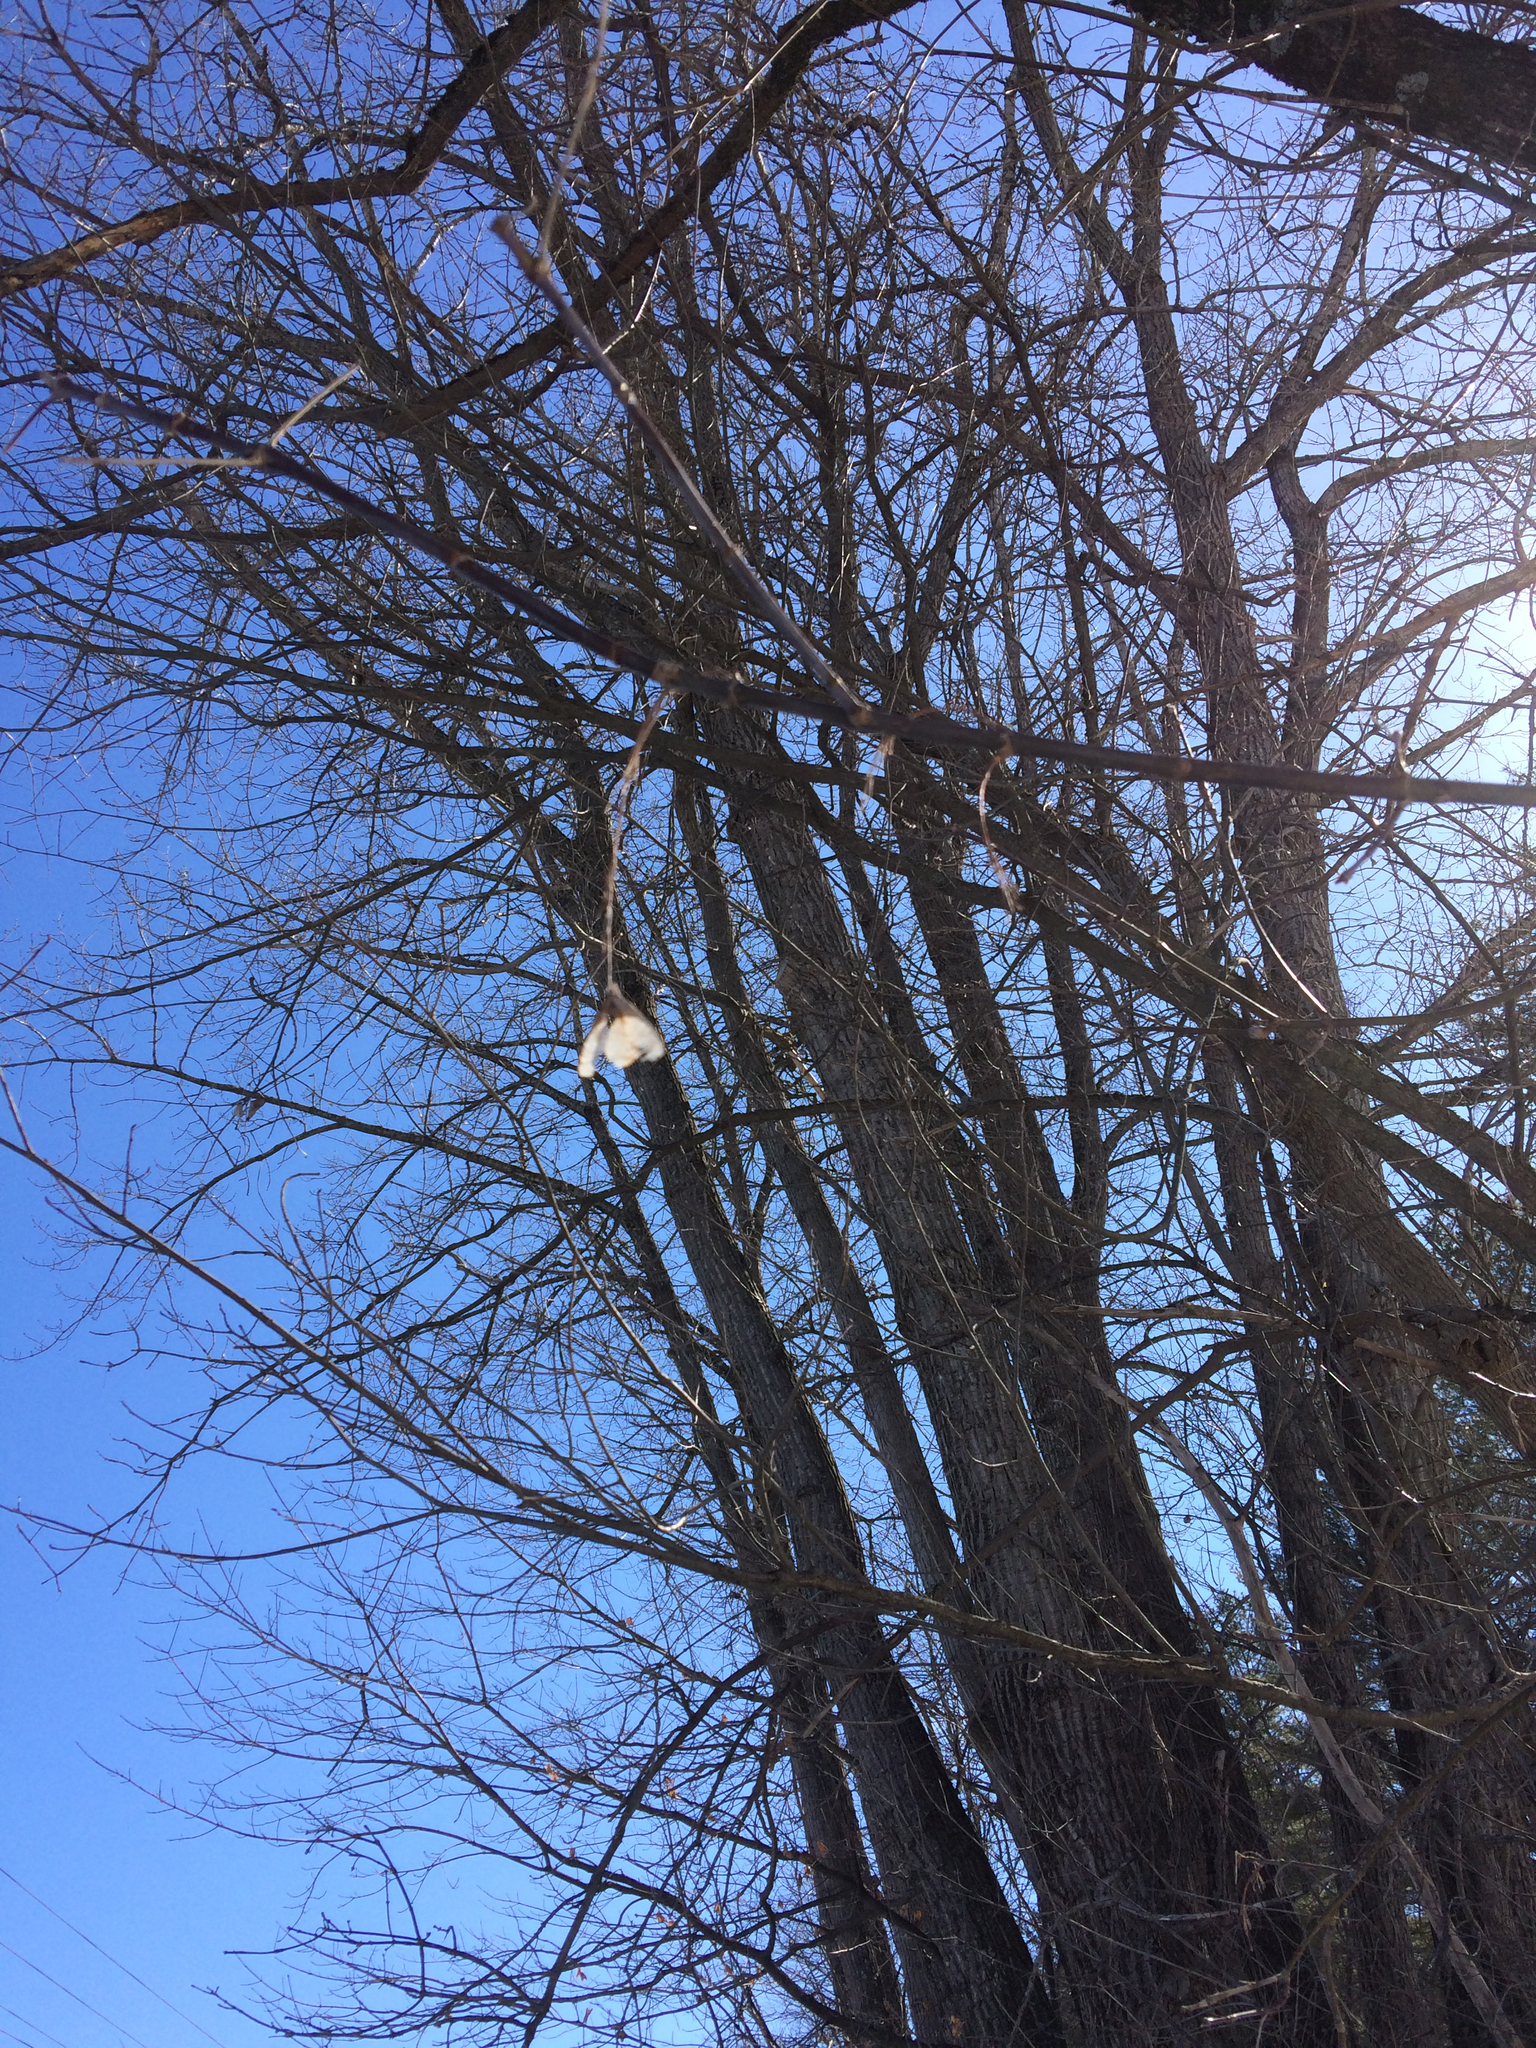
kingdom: Plantae
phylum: Tracheophyta
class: Magnoliopsida
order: Sapindales
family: Sapindaceae
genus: Acer
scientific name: Acer negundo
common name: Ashleaf maple
